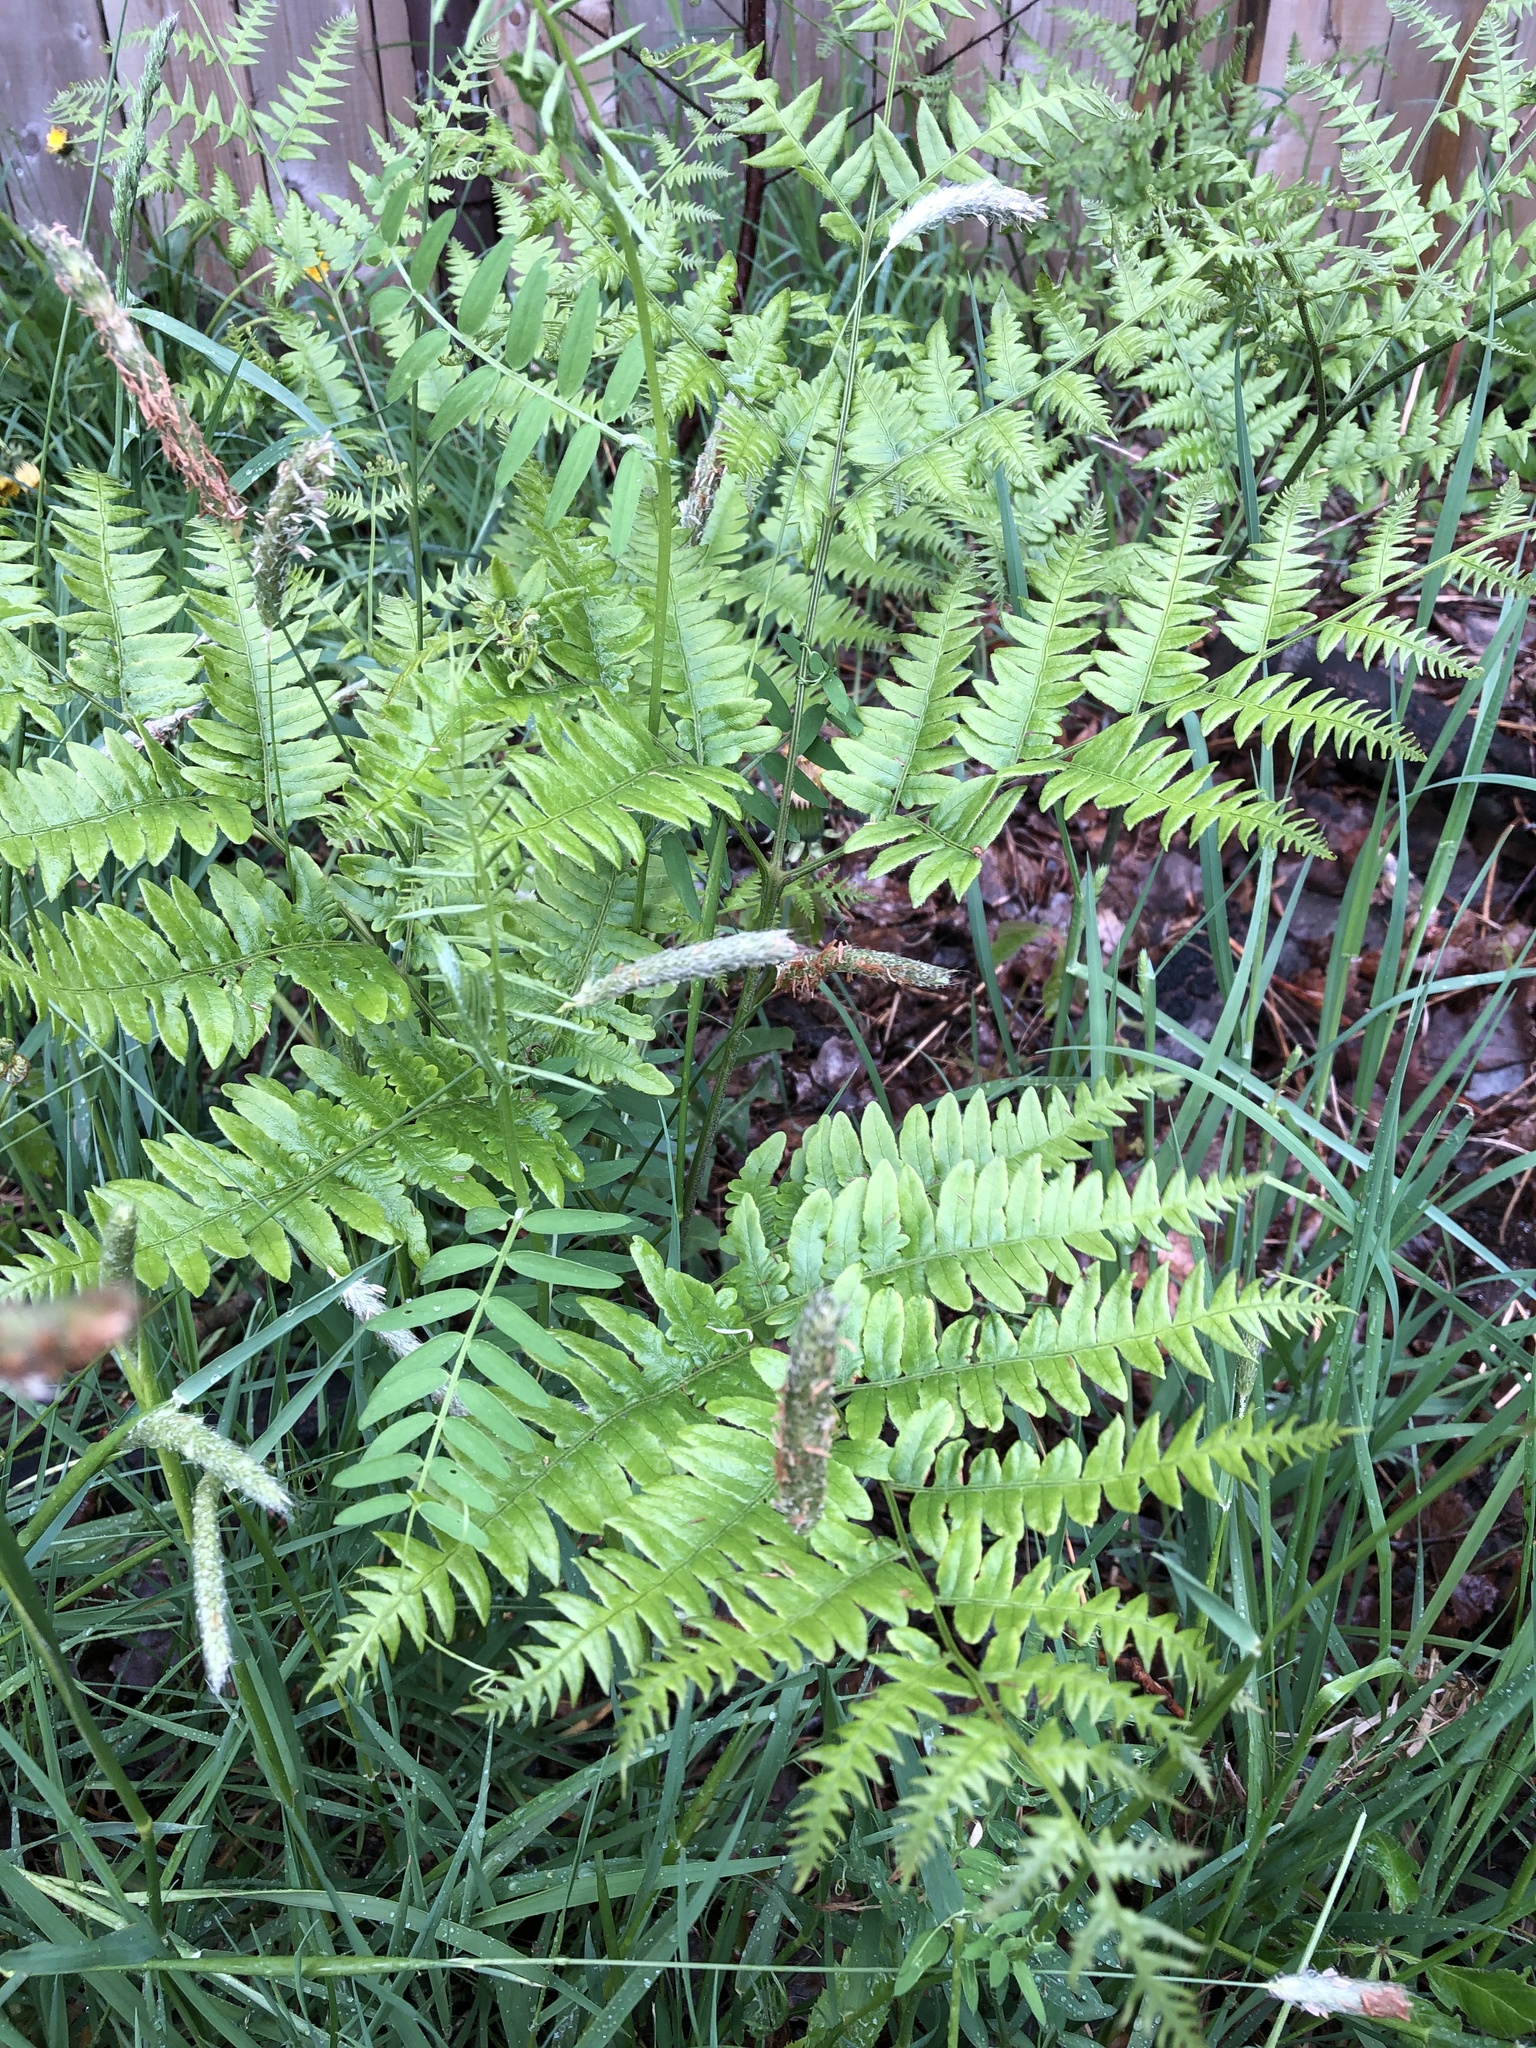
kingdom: Plantae
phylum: Tracheophyta
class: Polypodiopsida
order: Polypodiales
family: Dennstaedtiaceae
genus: Pteridium
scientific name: Pteridium aquilinum
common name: Bracken
